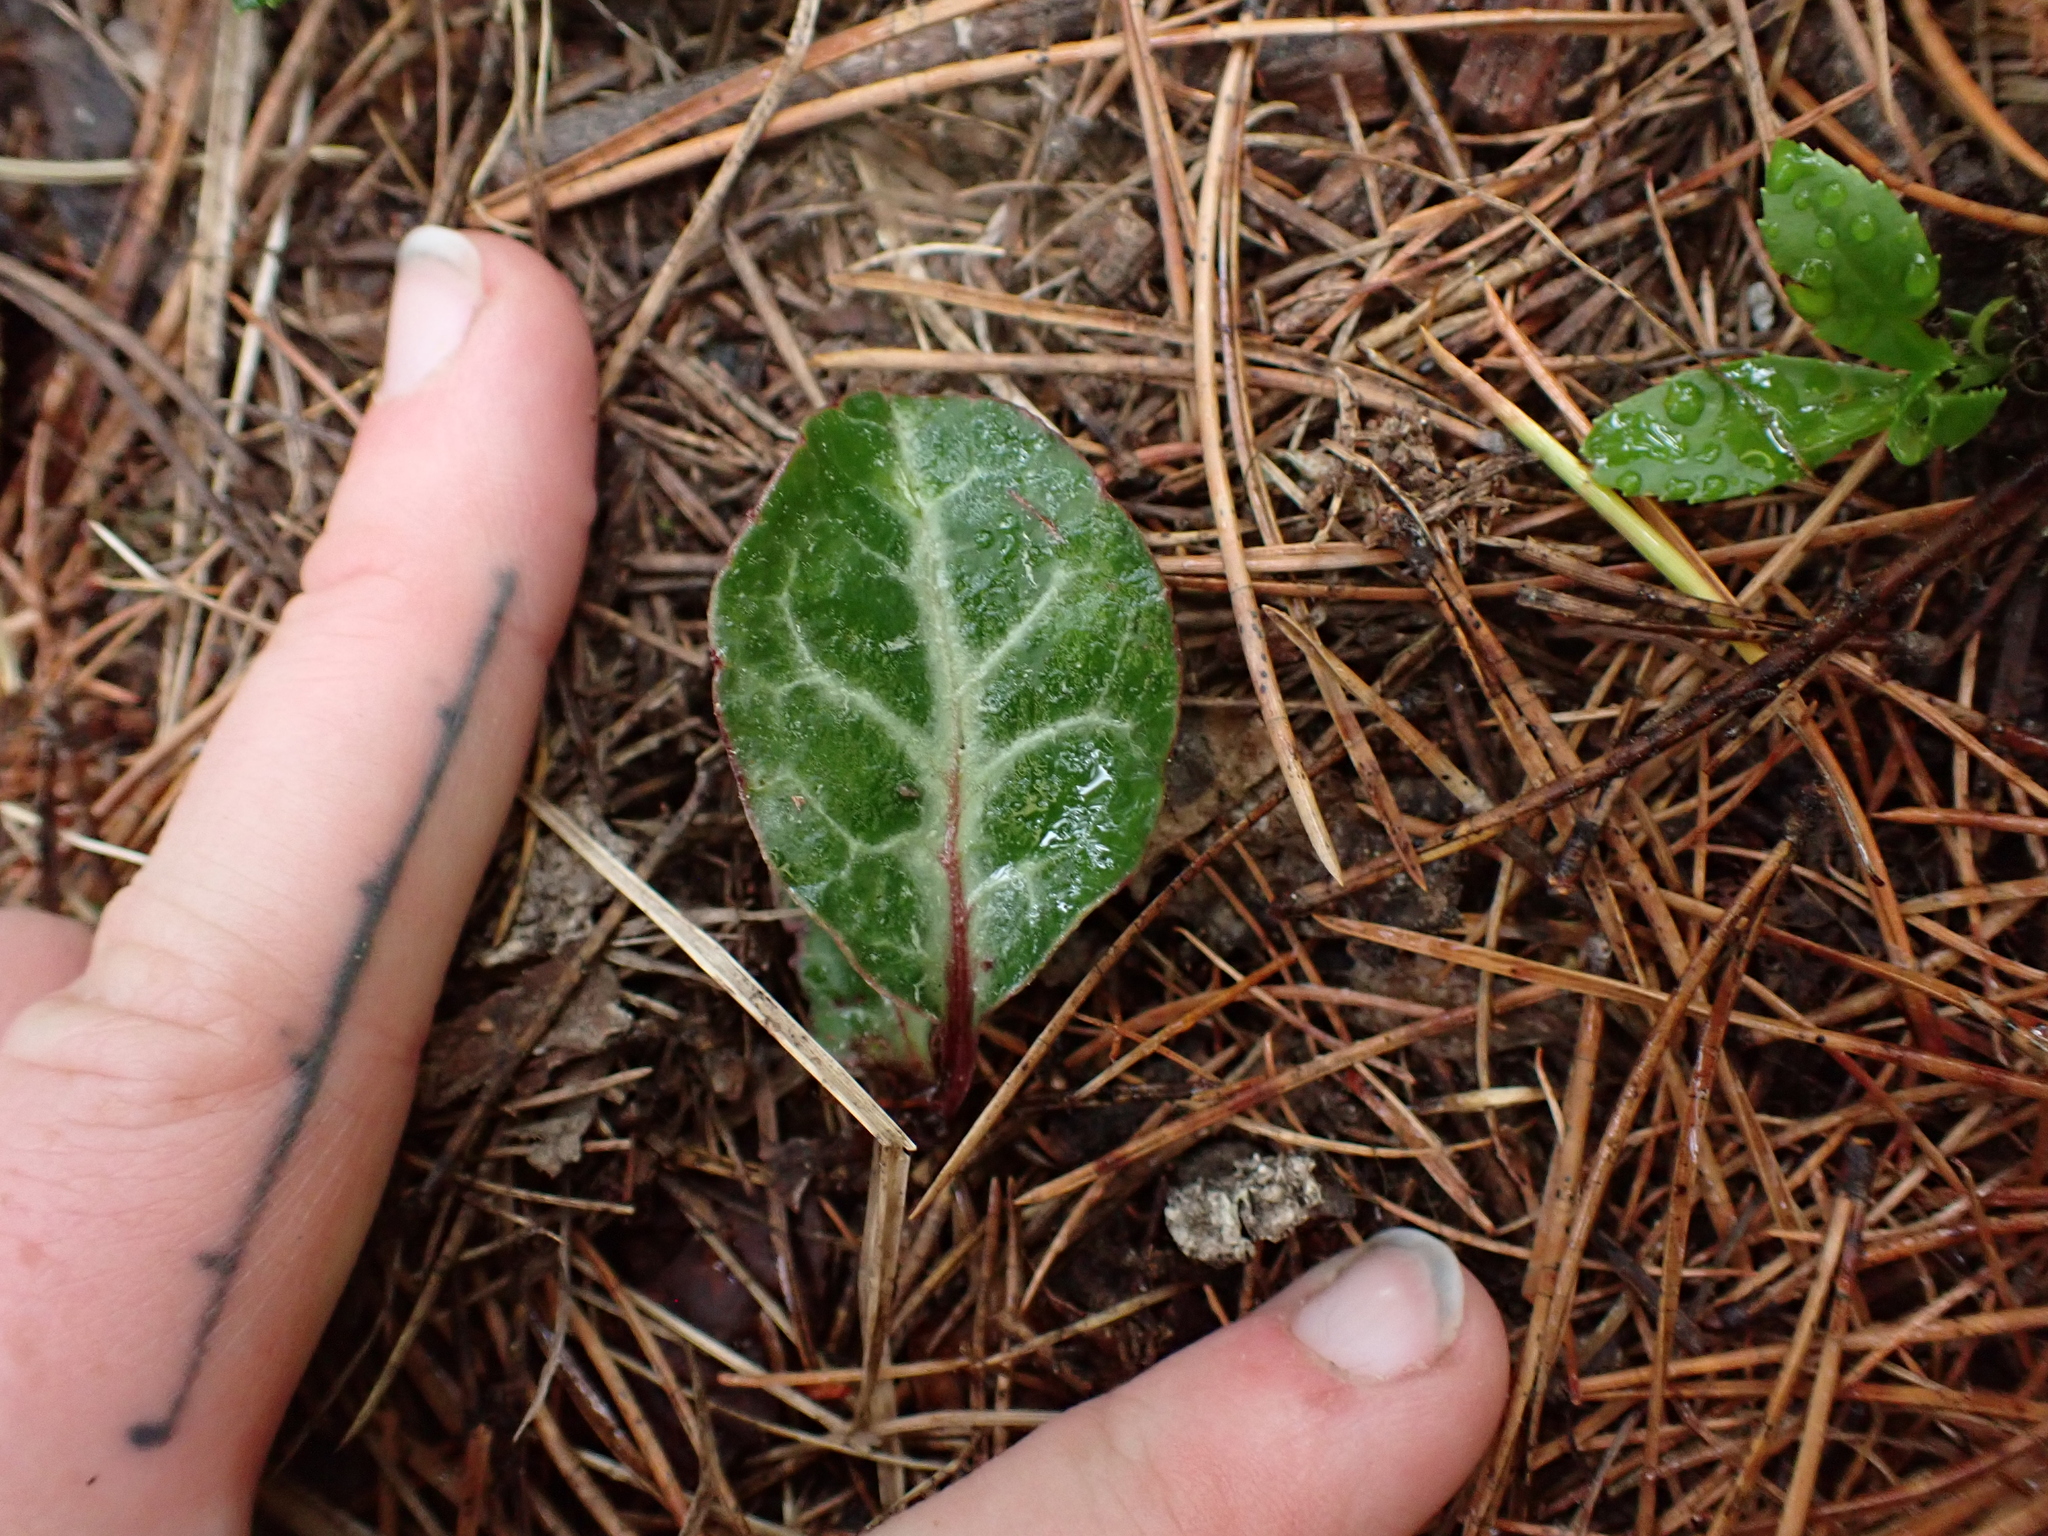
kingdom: Plantae
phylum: Tracheophyta
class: Magnoliopsida
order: Ericales
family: Ericaceae
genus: Pyrola
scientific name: Pyrola picta
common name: White-vein wintergreen
